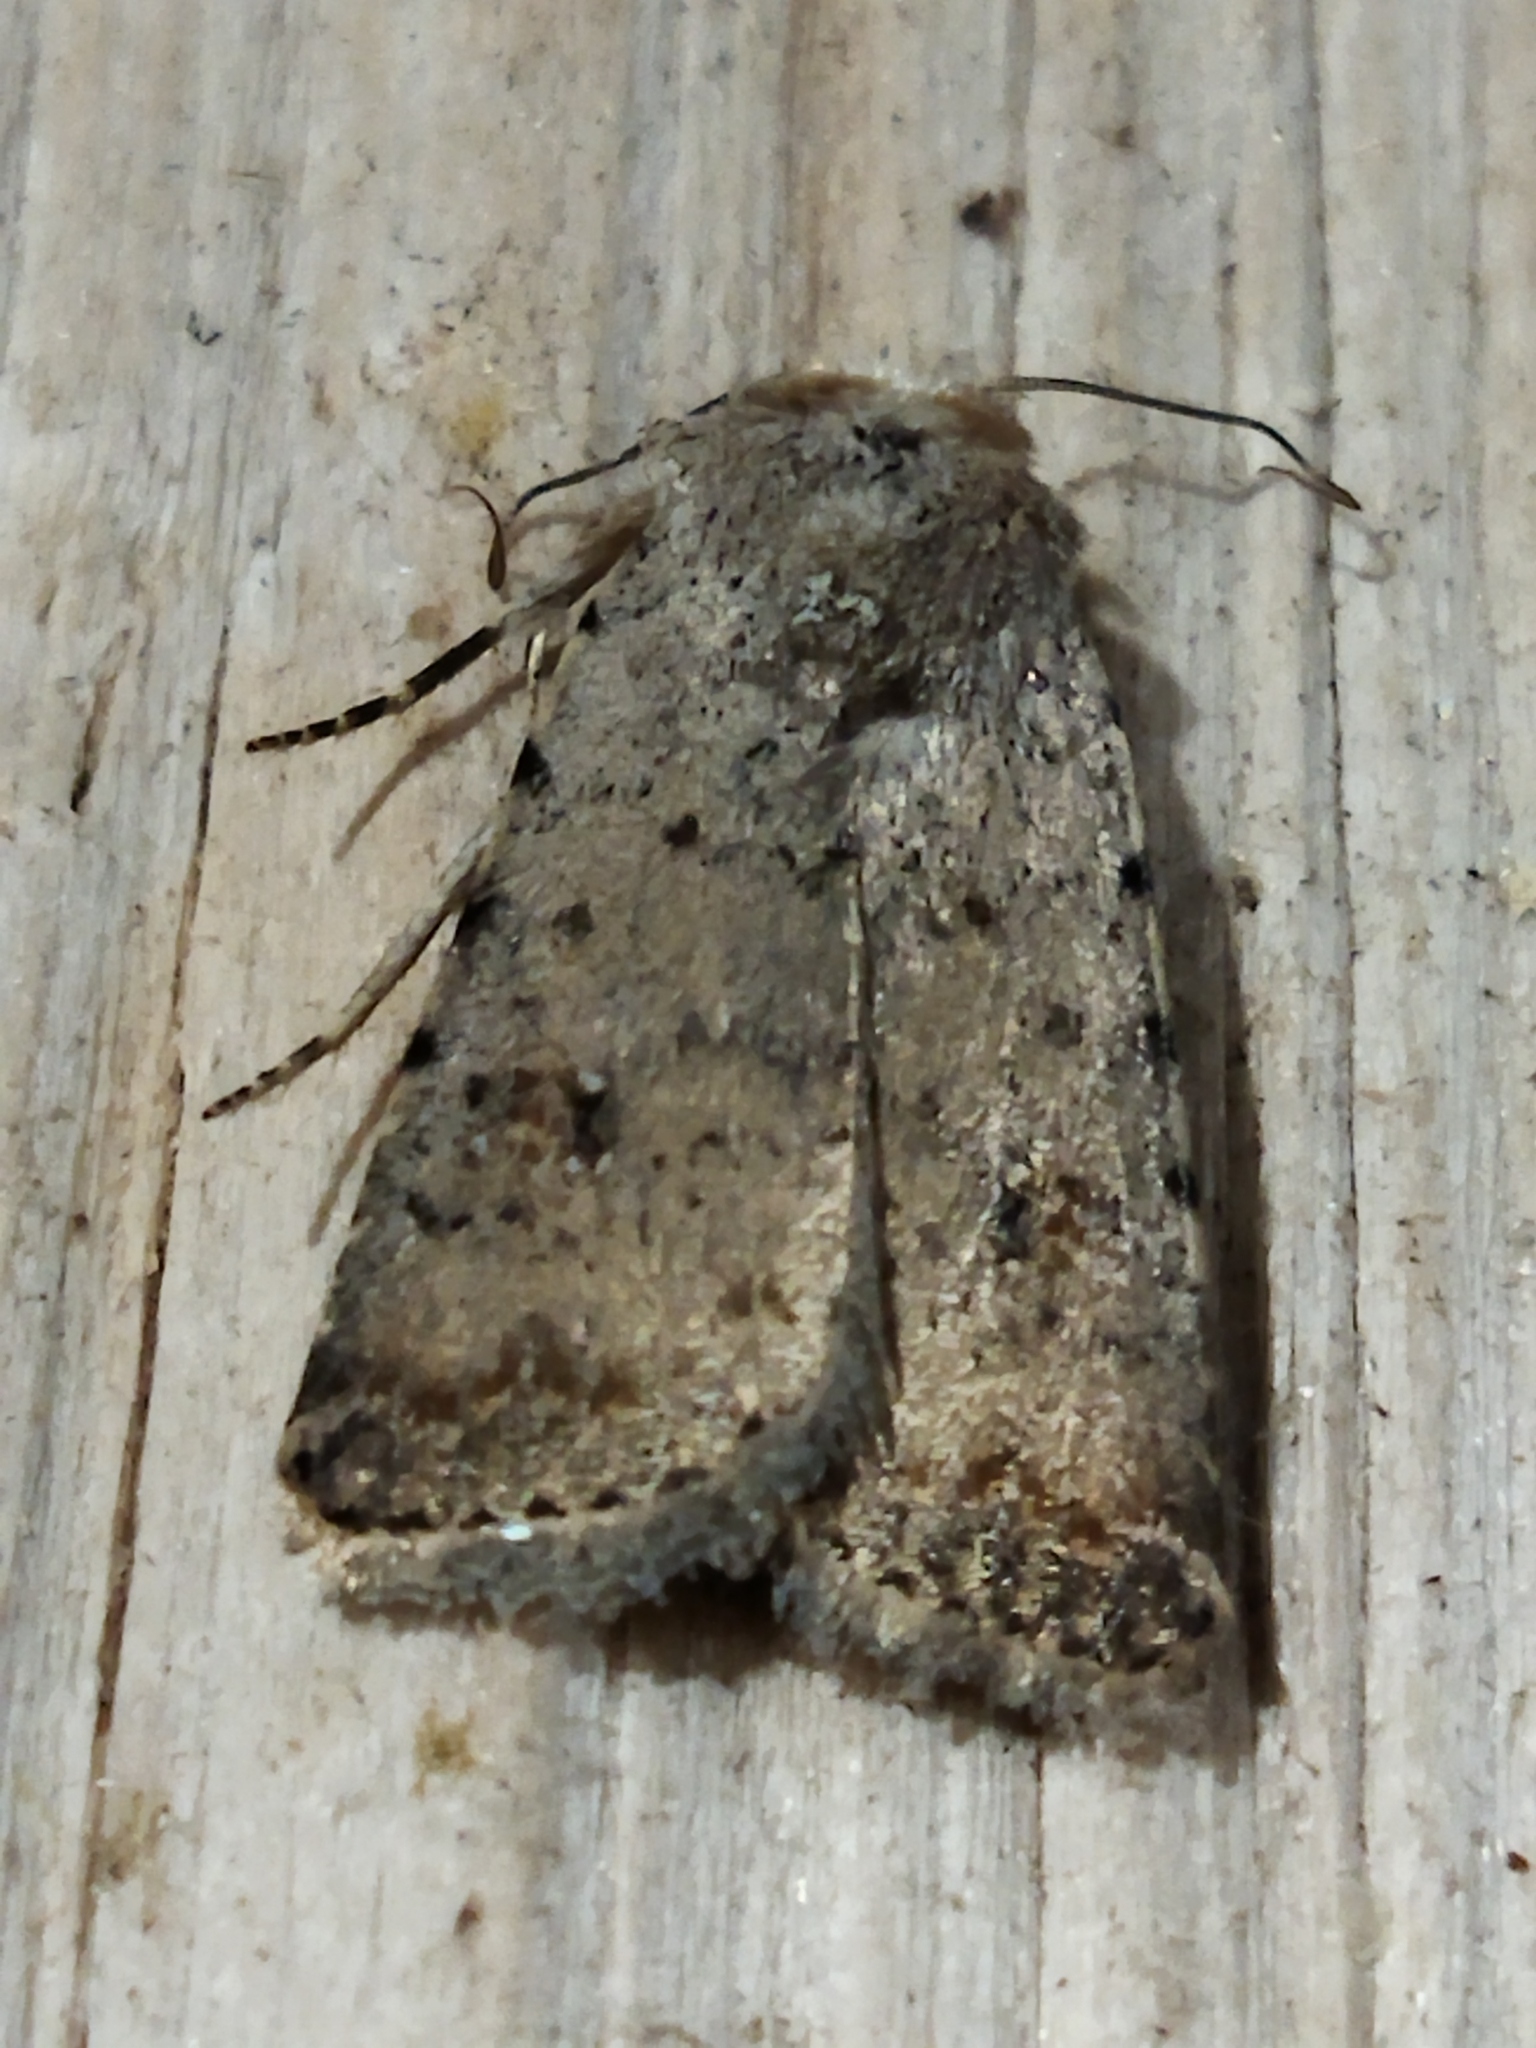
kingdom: Animalia
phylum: Arthropoda
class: Insecta
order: Lepidoptera
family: Noctuidae
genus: Caradrina
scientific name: Caradrina clavipalpis
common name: Pale mottled willow
